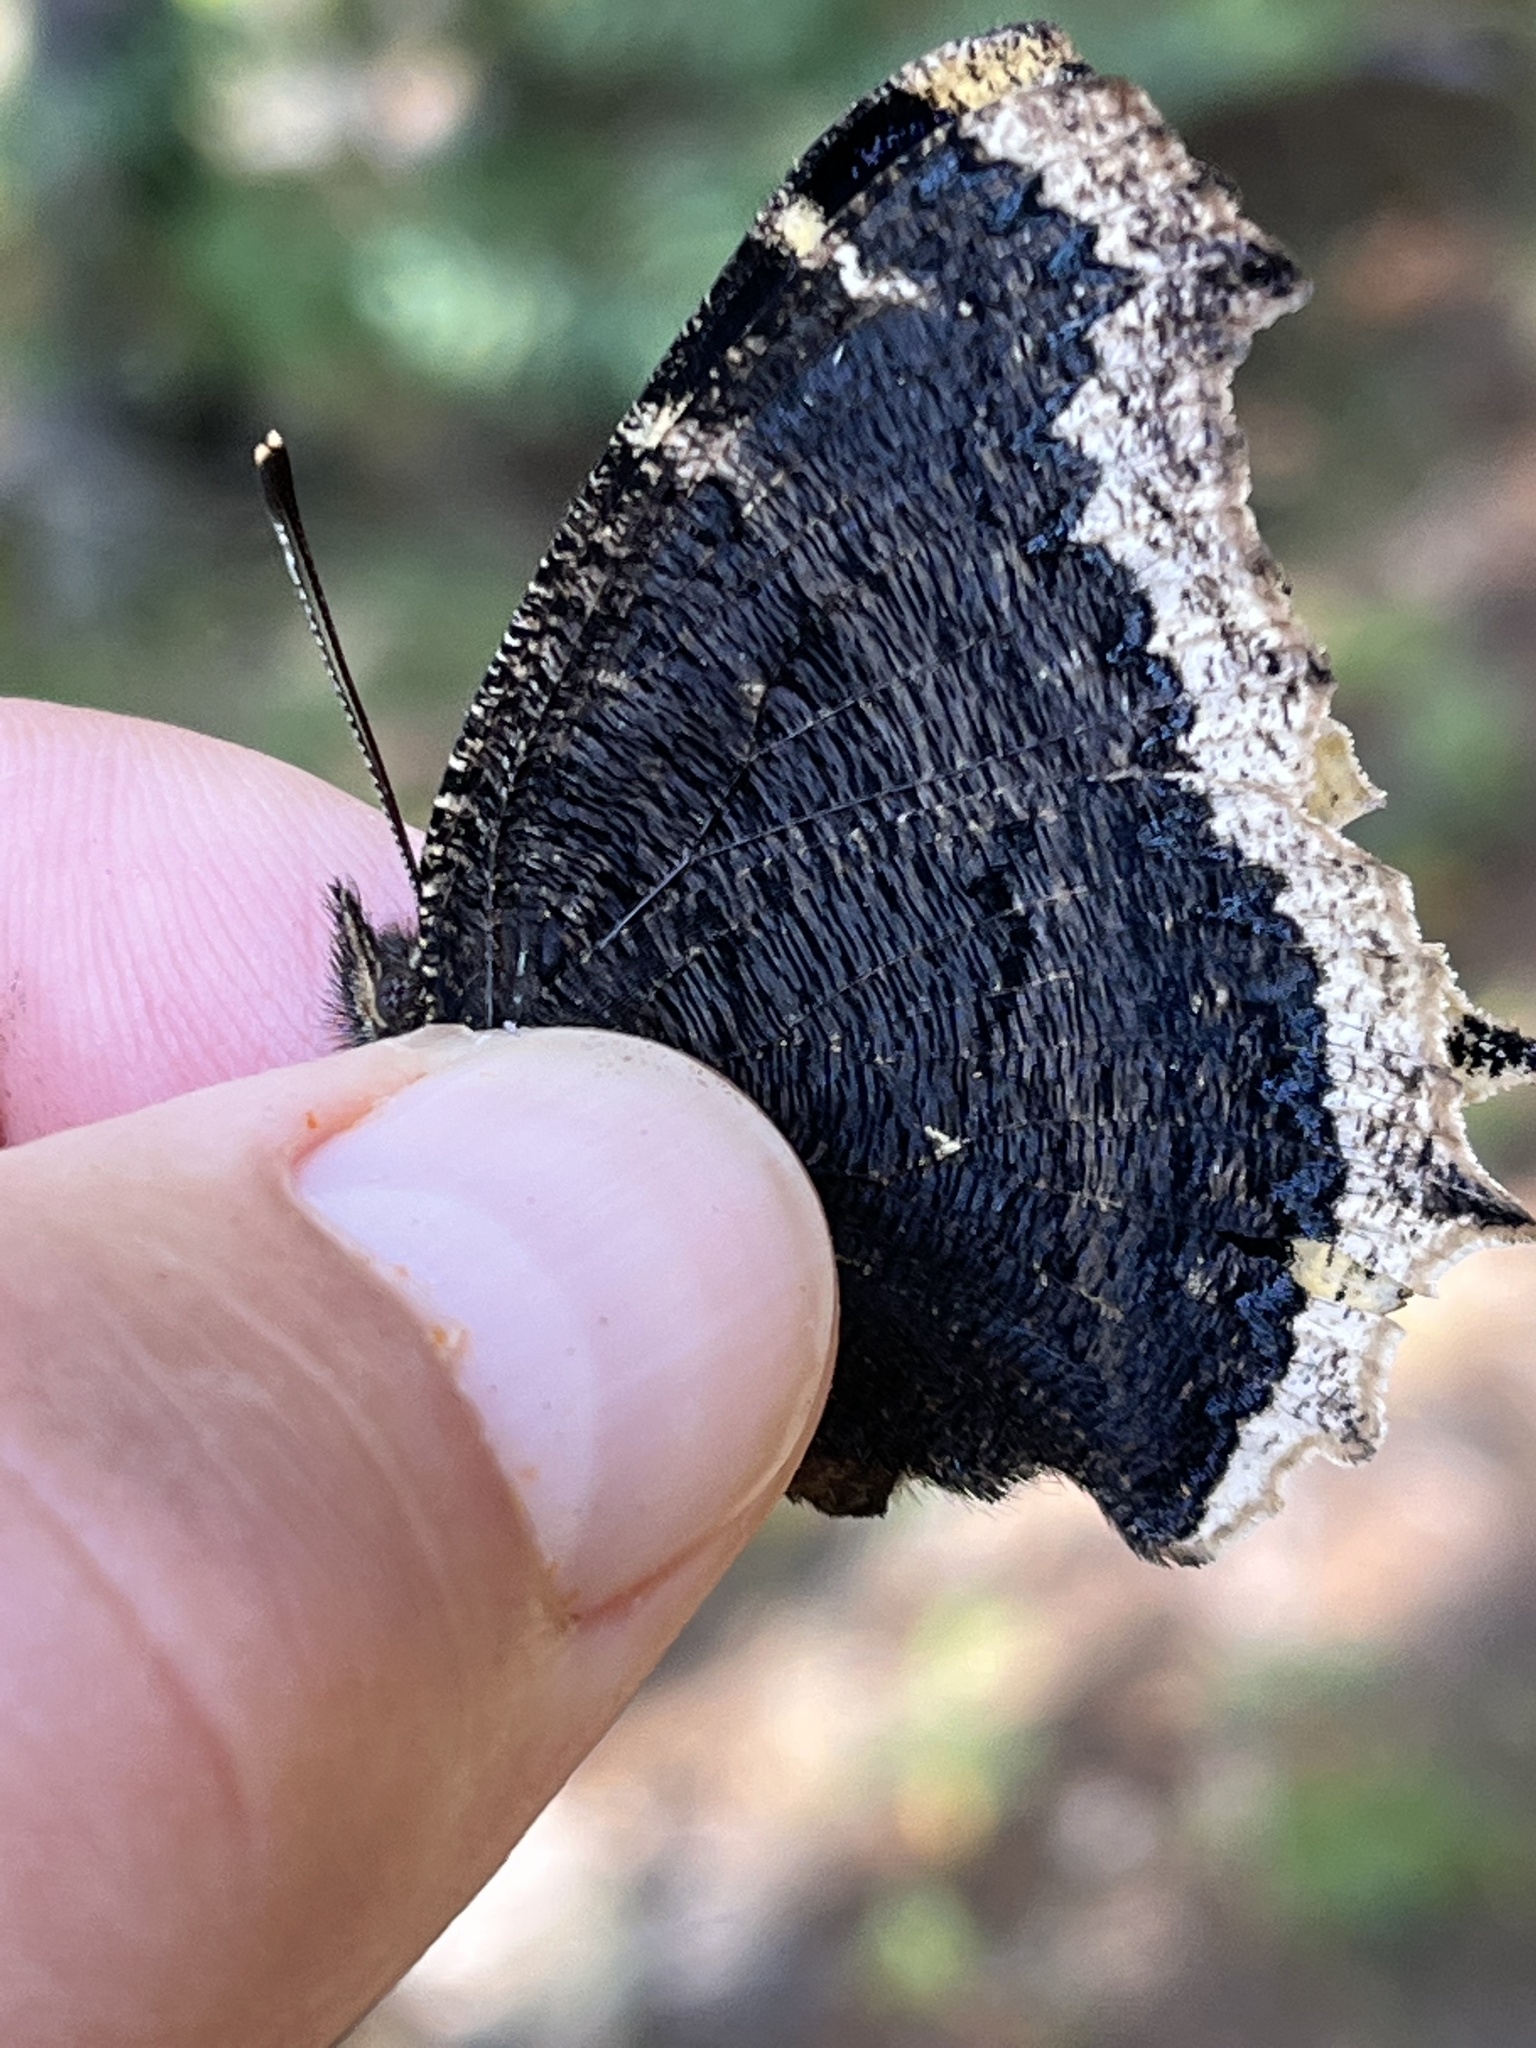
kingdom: Animalia
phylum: Arthropoda
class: Insecta
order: Lepidoptera
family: Nymphalidae
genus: Nymphalis
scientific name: Nymphalis antiopa
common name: Camberwell beauty
